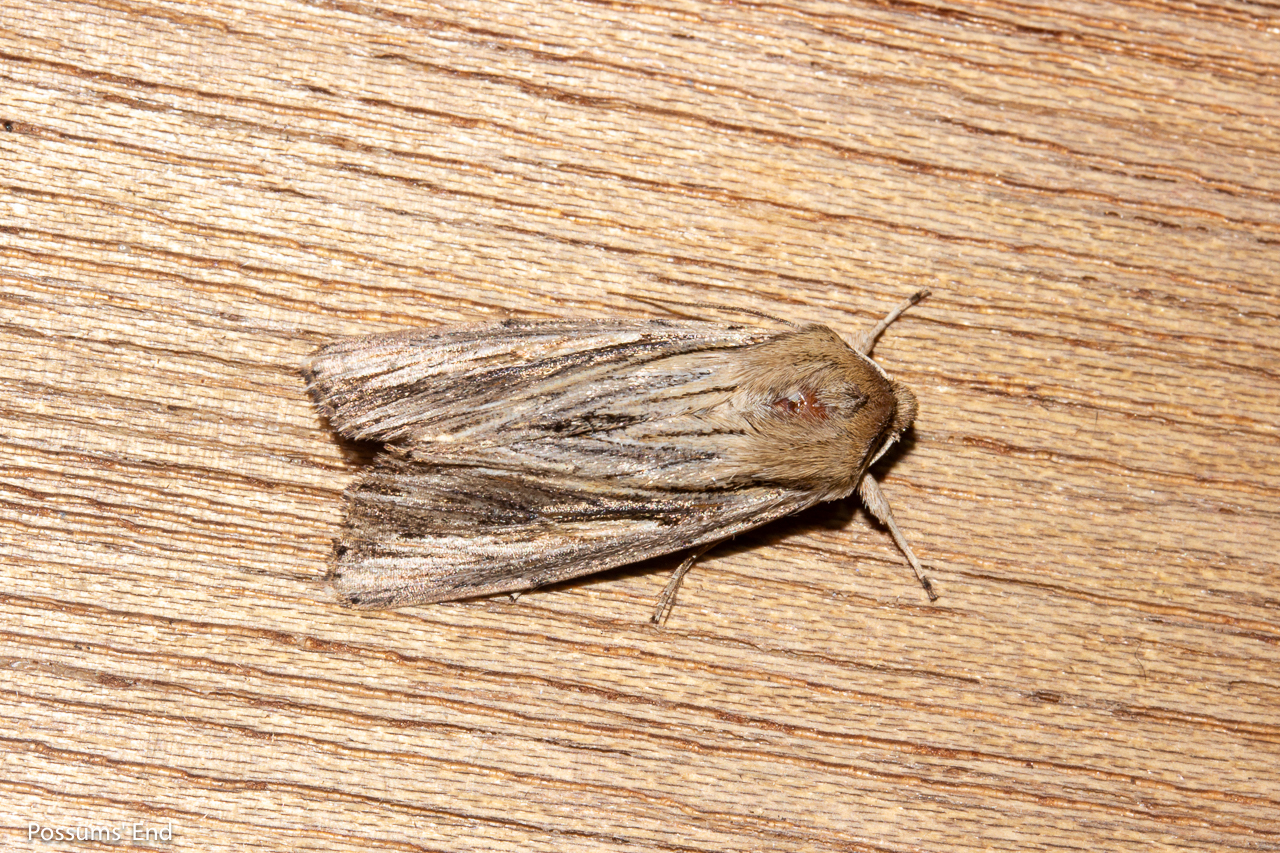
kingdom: Animalia
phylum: Arthropoda
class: Insecta
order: Lepidoptera
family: Noctuidae
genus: Persectania
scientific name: Persectania aversa
